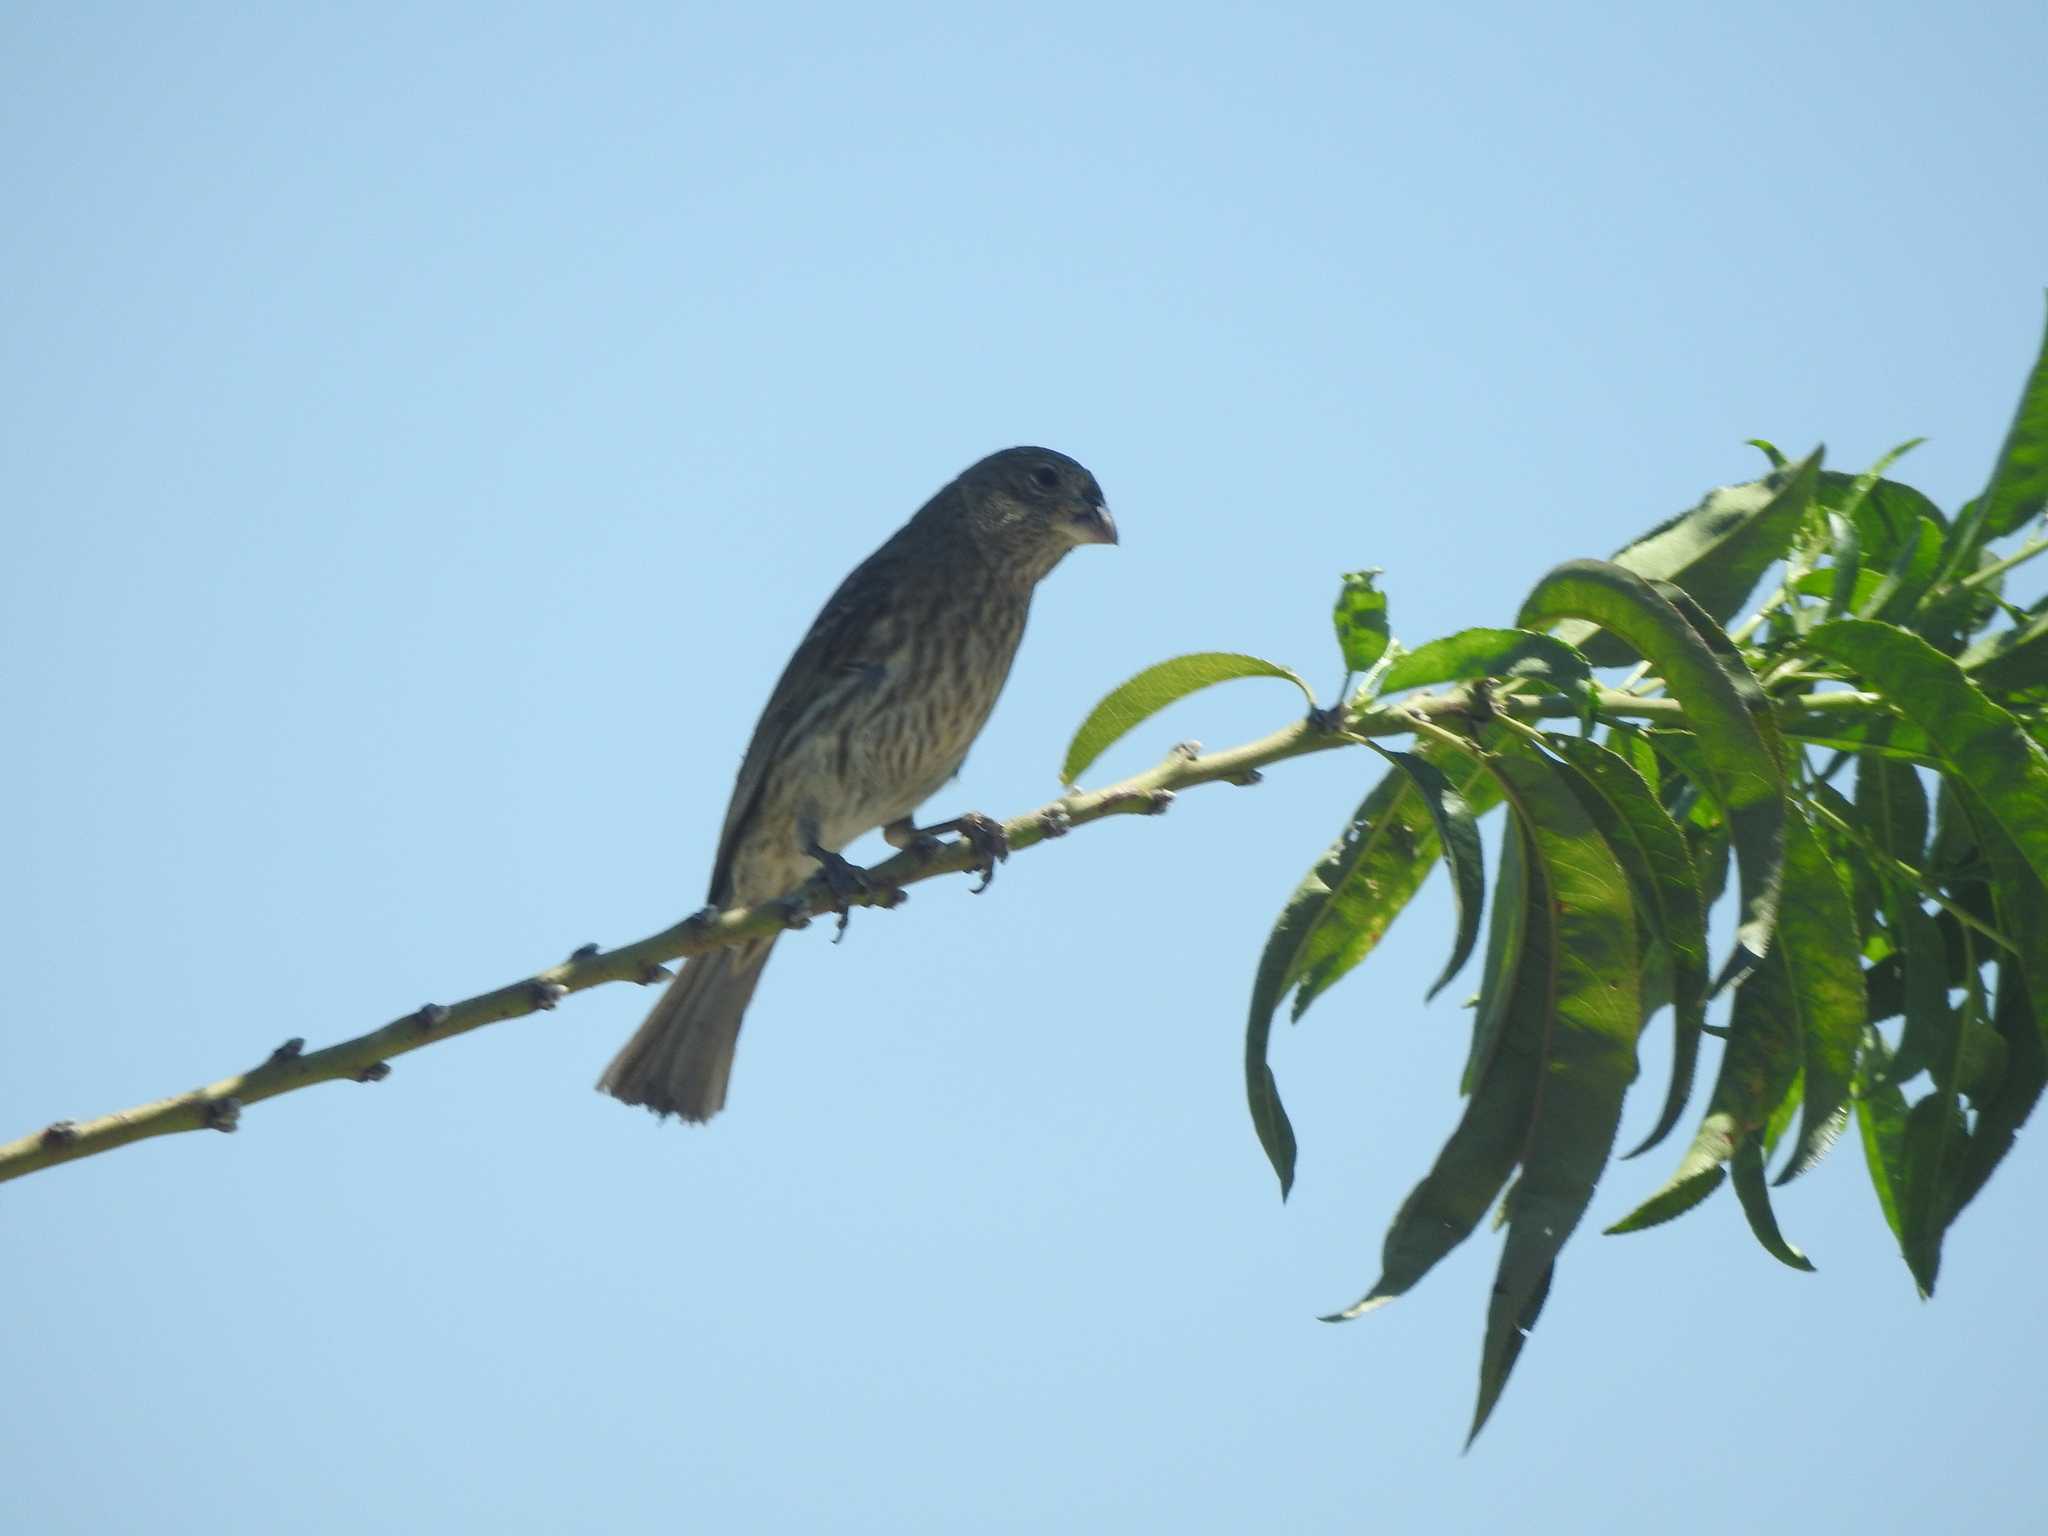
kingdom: Animalia
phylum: Chordata
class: Aves
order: Passeriformes
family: Fringillidae
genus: Haemorhous
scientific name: Haemorhous mexicanus
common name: House finch
